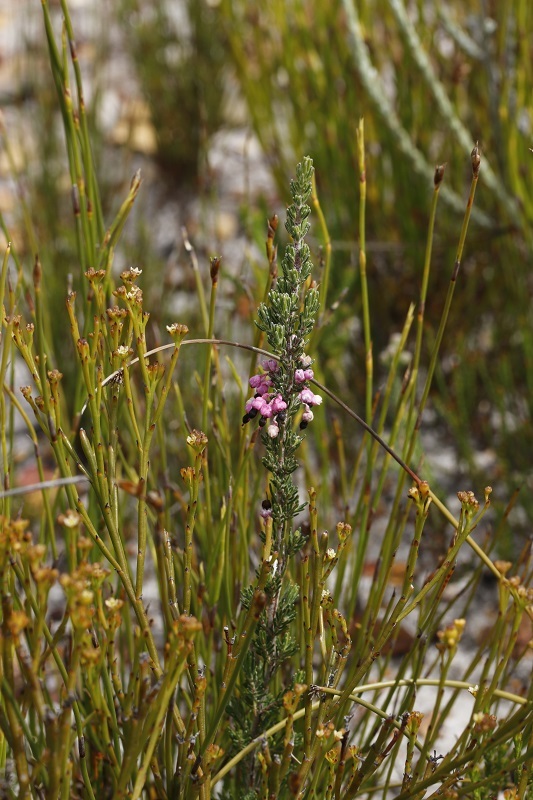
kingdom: Plantae
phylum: Tracheophyta
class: Magnoliopsida
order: Ericales
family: Ericaceae
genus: Erica
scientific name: Erica placentiflora
